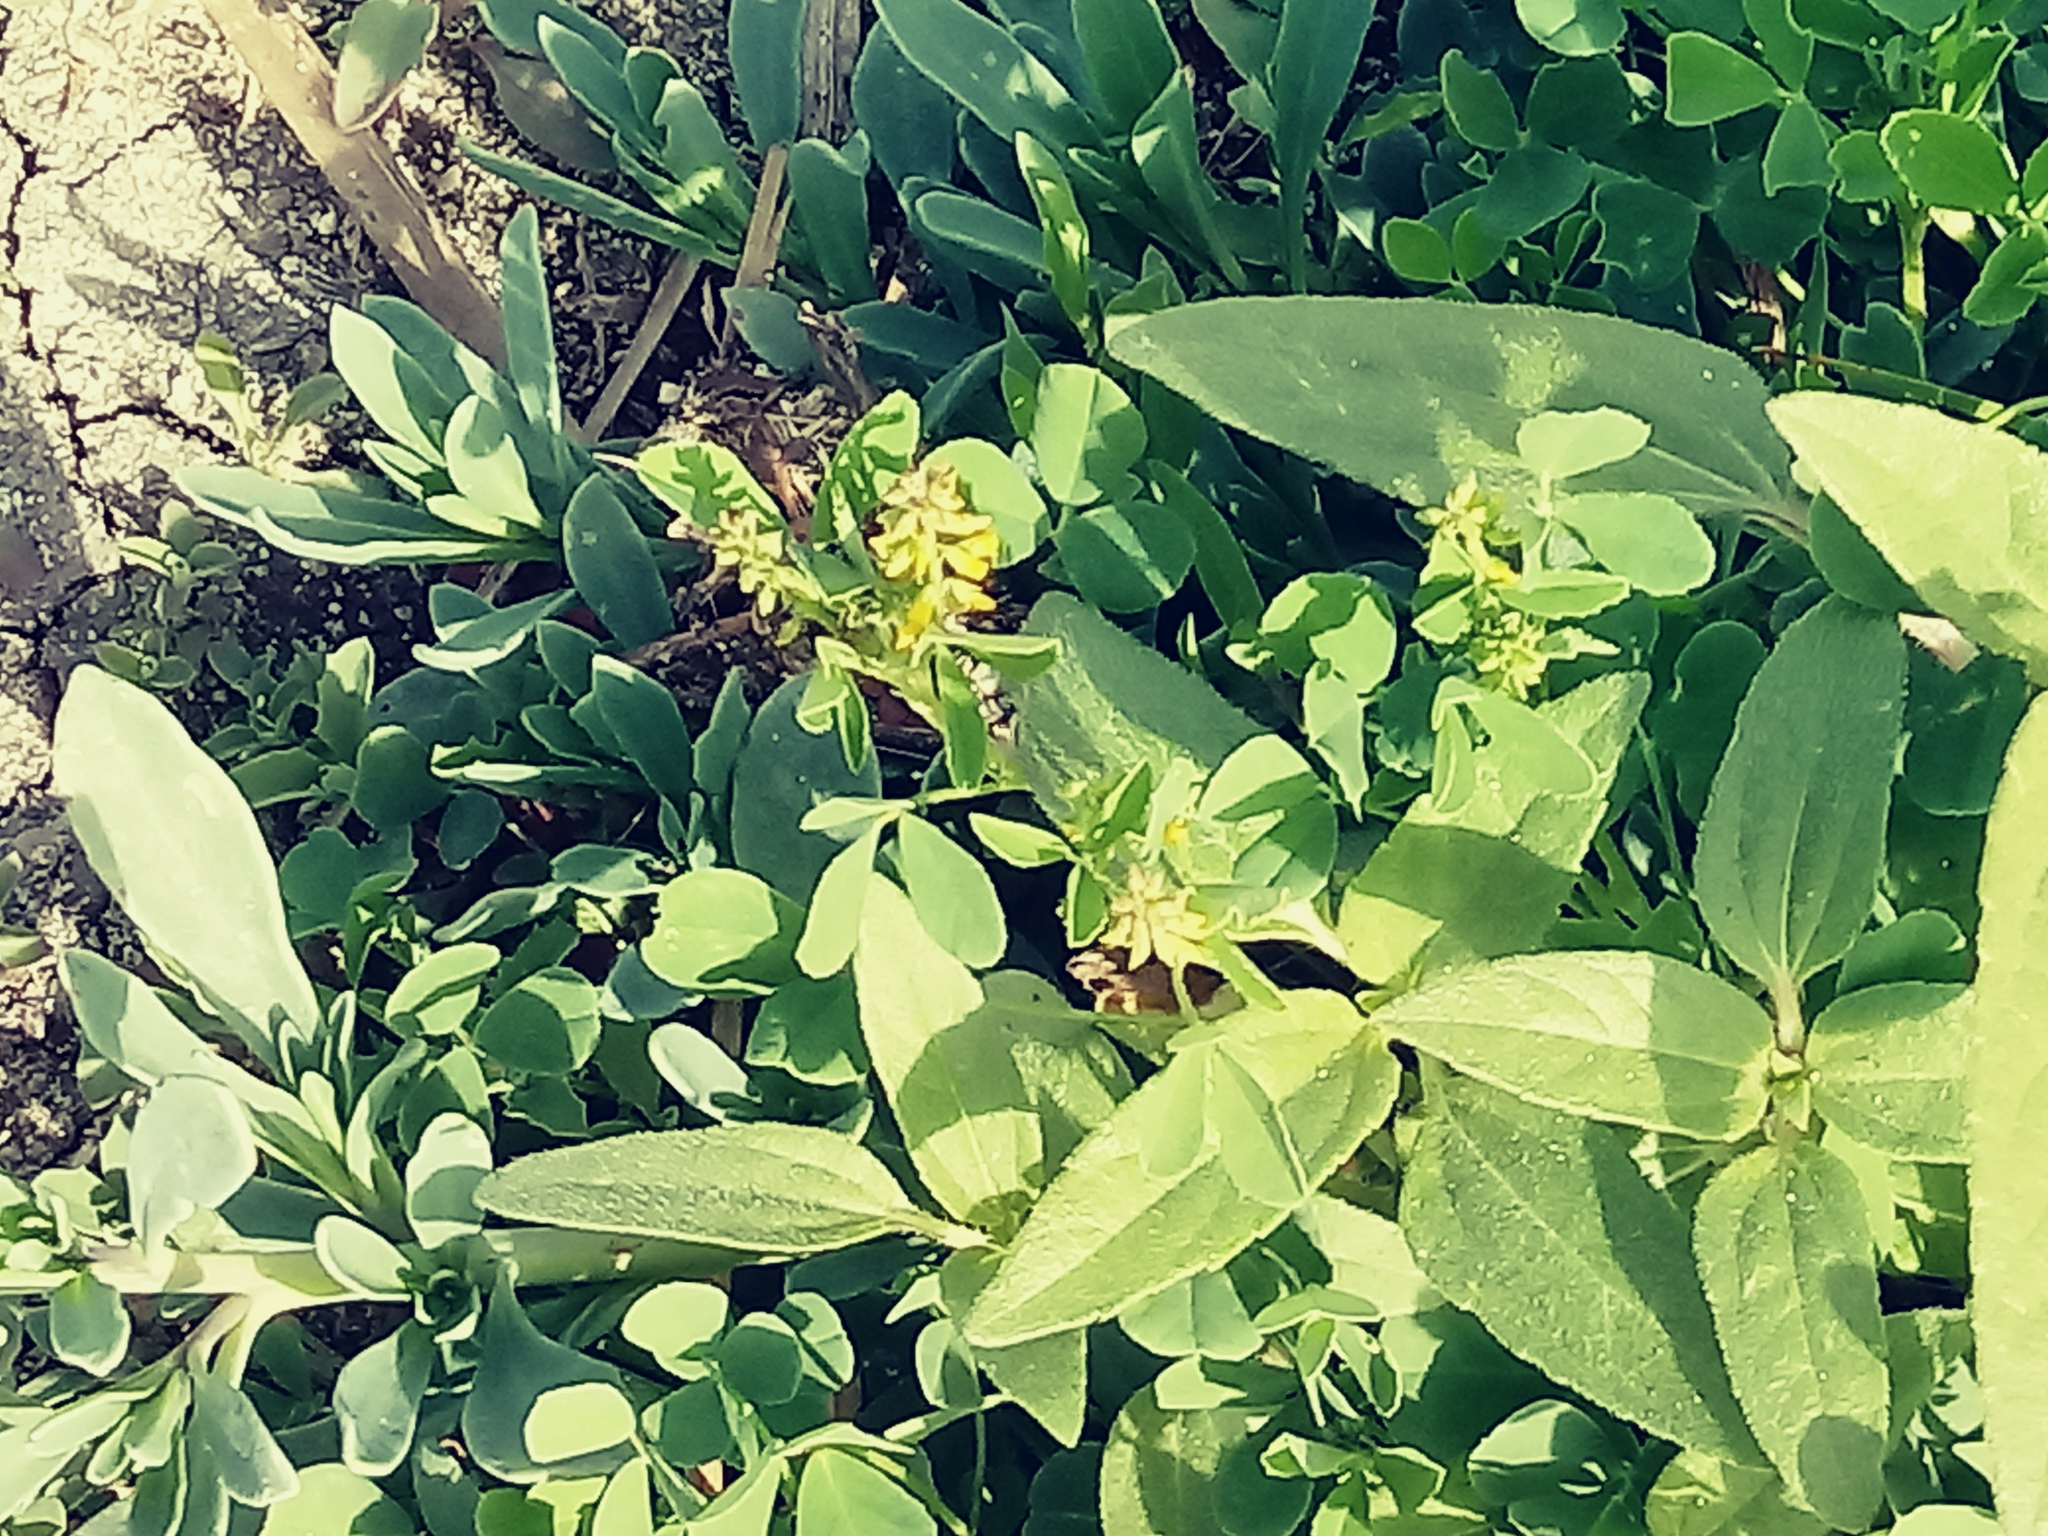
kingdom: Plantae
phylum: Tracheophyta
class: Magnoliopsida
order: Fabales
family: Fabaceae
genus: Melilotus
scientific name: Melilotus indicus
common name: Small melilot
